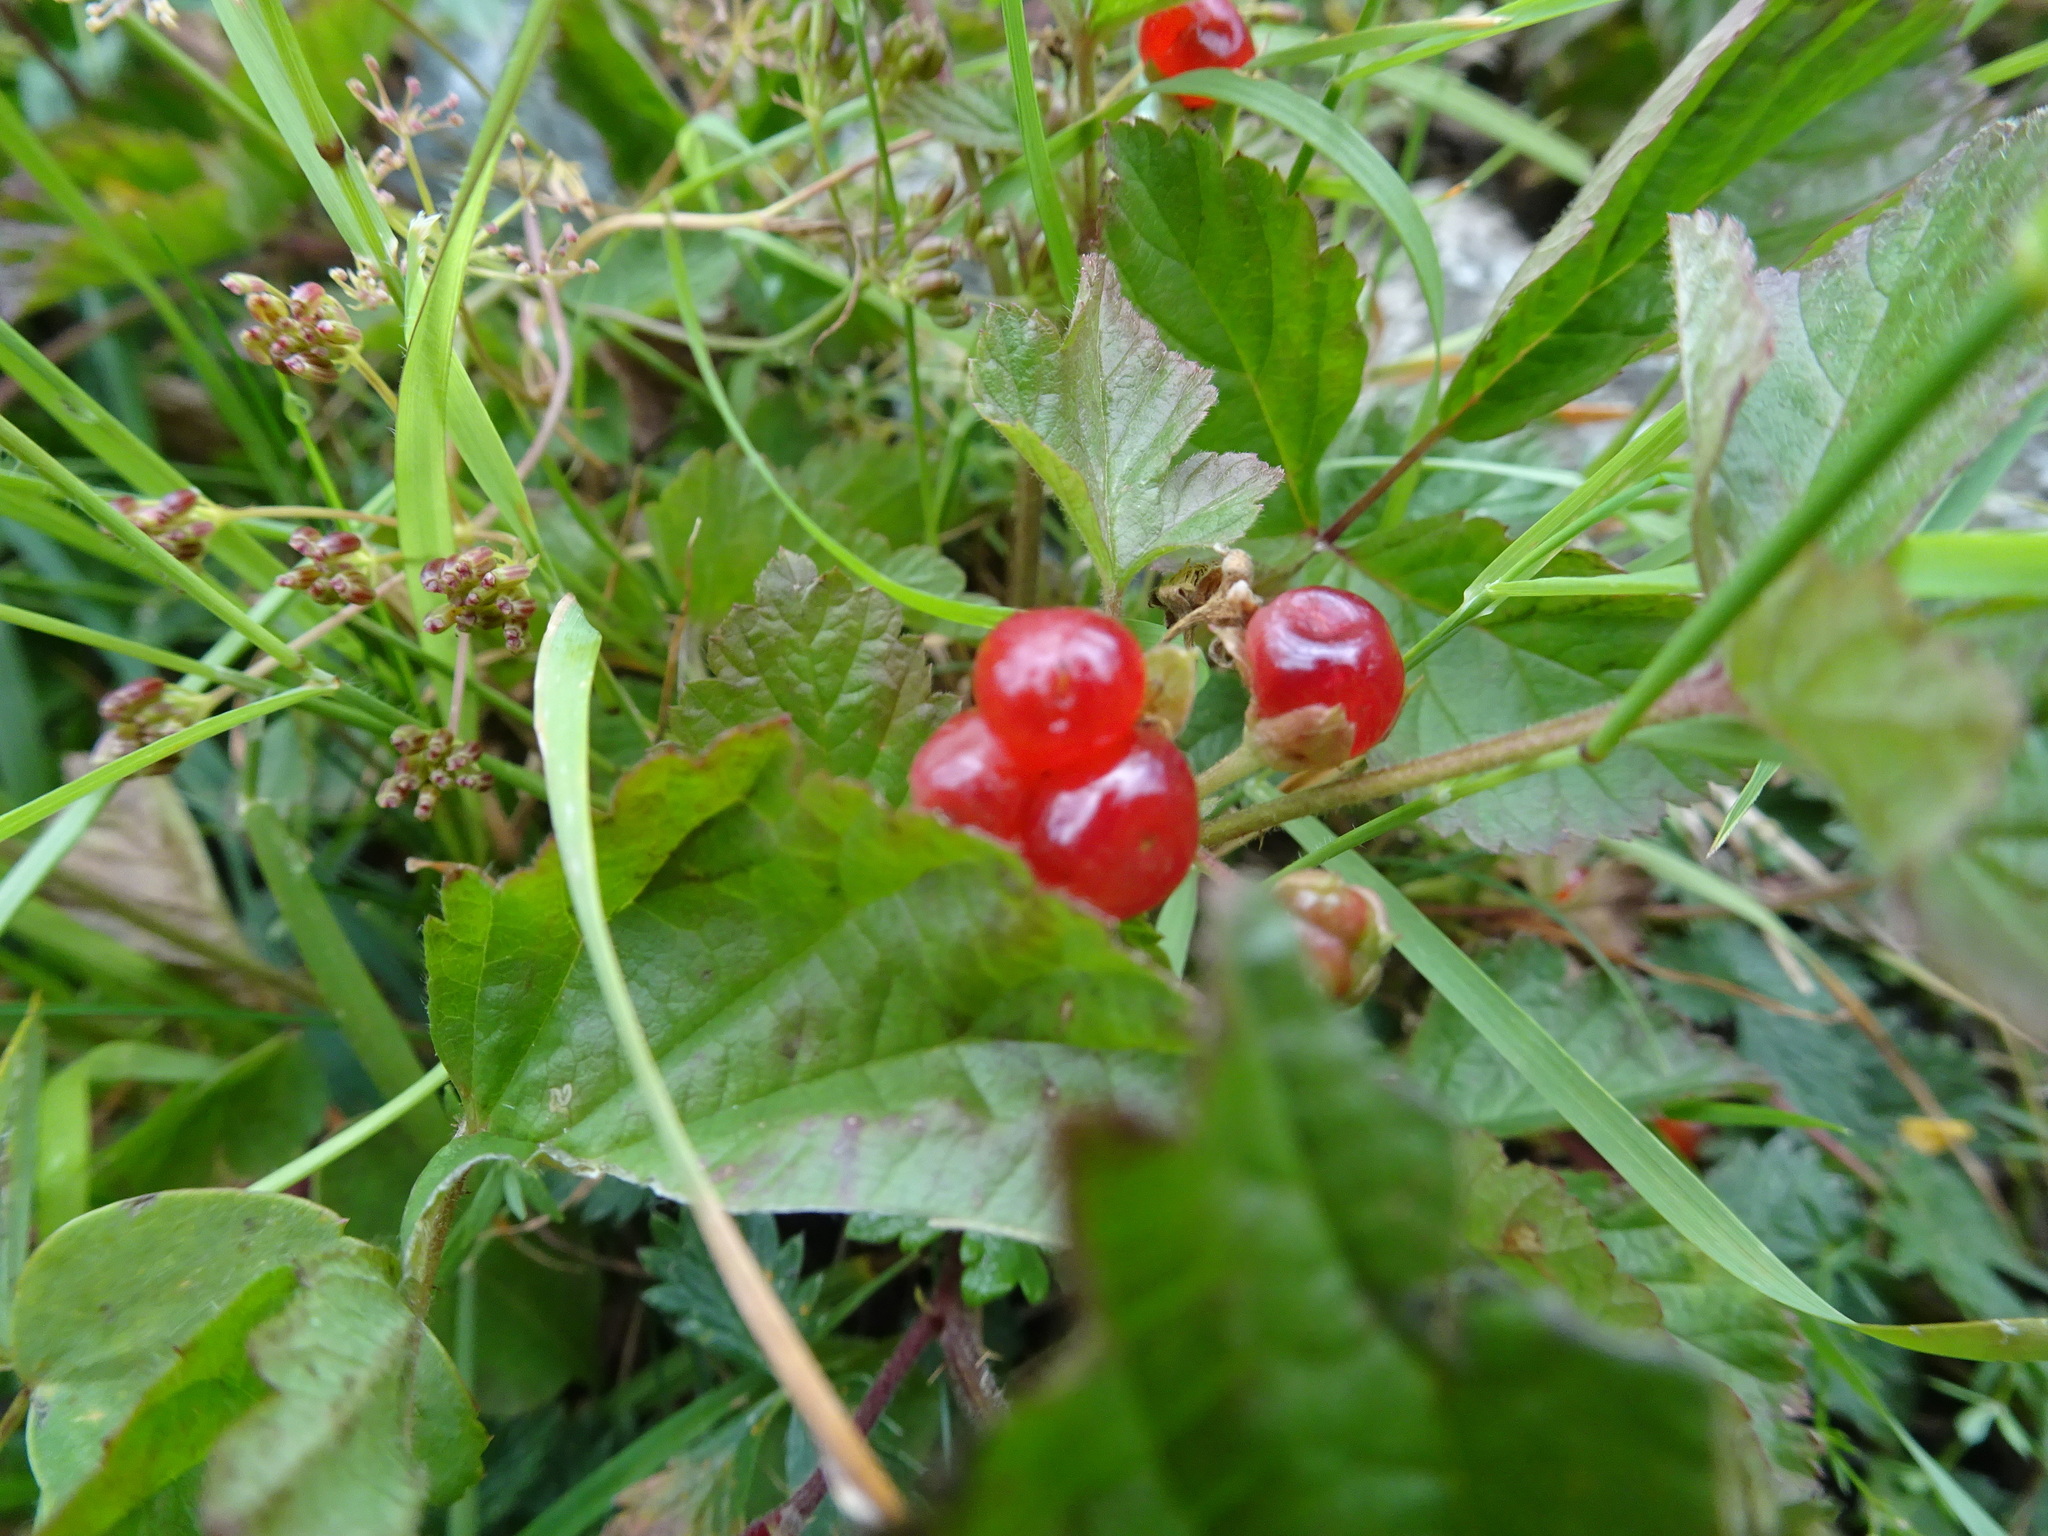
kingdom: Plantae
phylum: Tracheophyta
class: Magnoliopsida
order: Rosales
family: Rosaceae
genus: Rubus
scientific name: Rubus saxatilis
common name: Stone bramble
